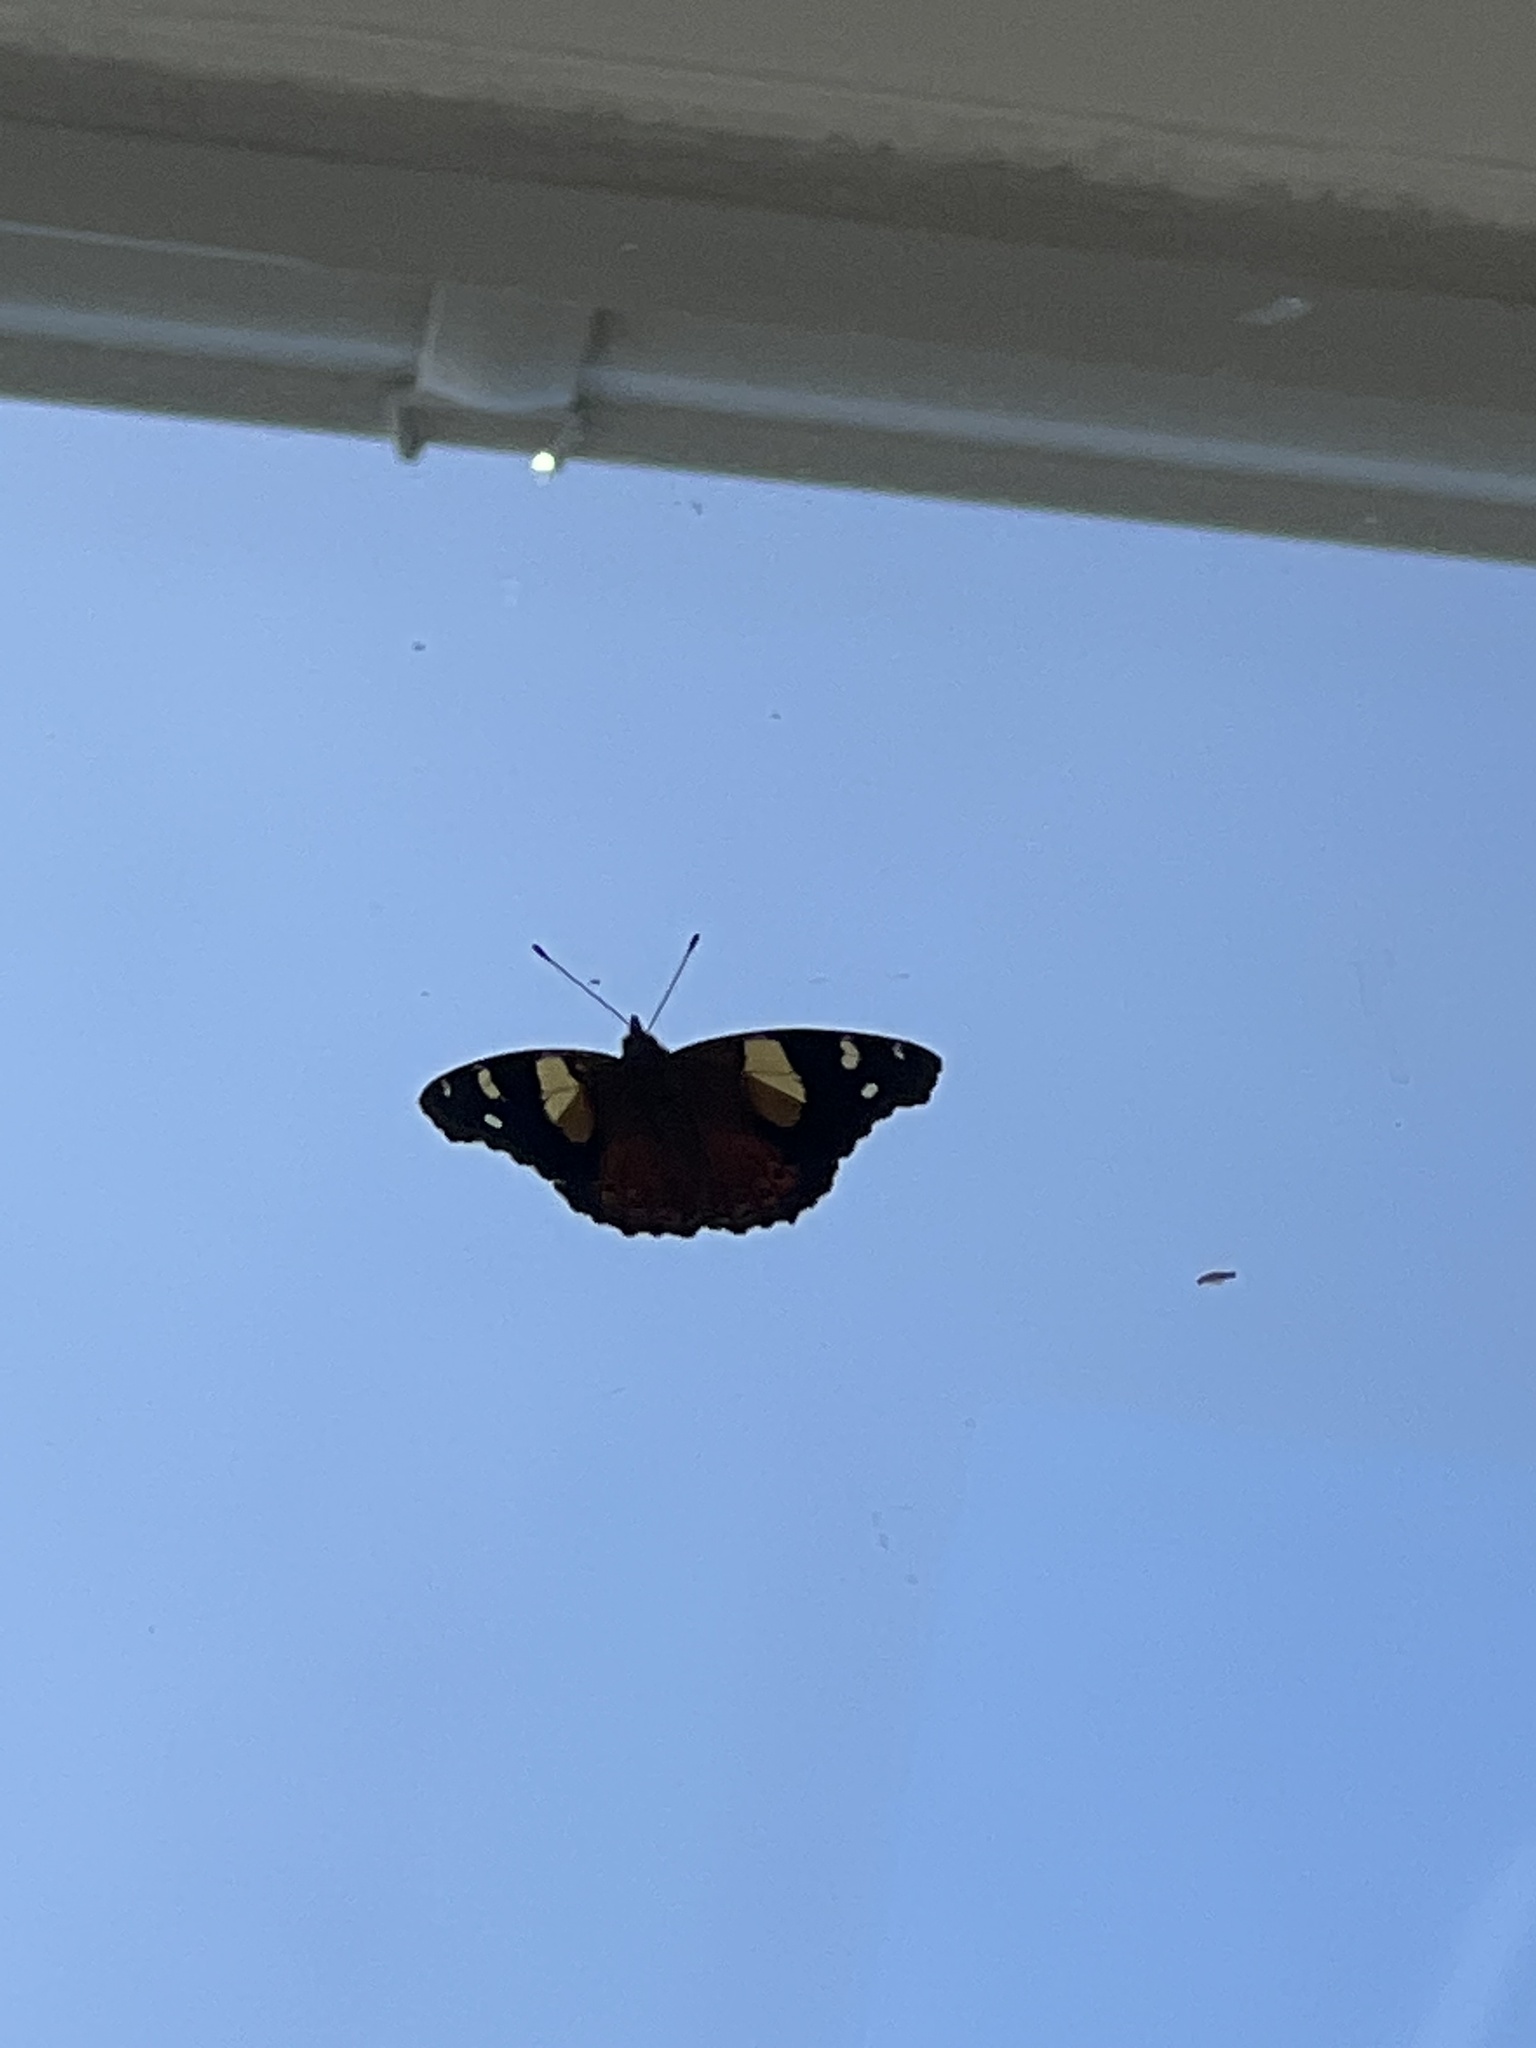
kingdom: Animalia
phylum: Arthropoda
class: Insecta
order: Lepidoptera
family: Nymphalidae
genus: Vanessa
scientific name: Vanessa itea
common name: Yellow admiral
